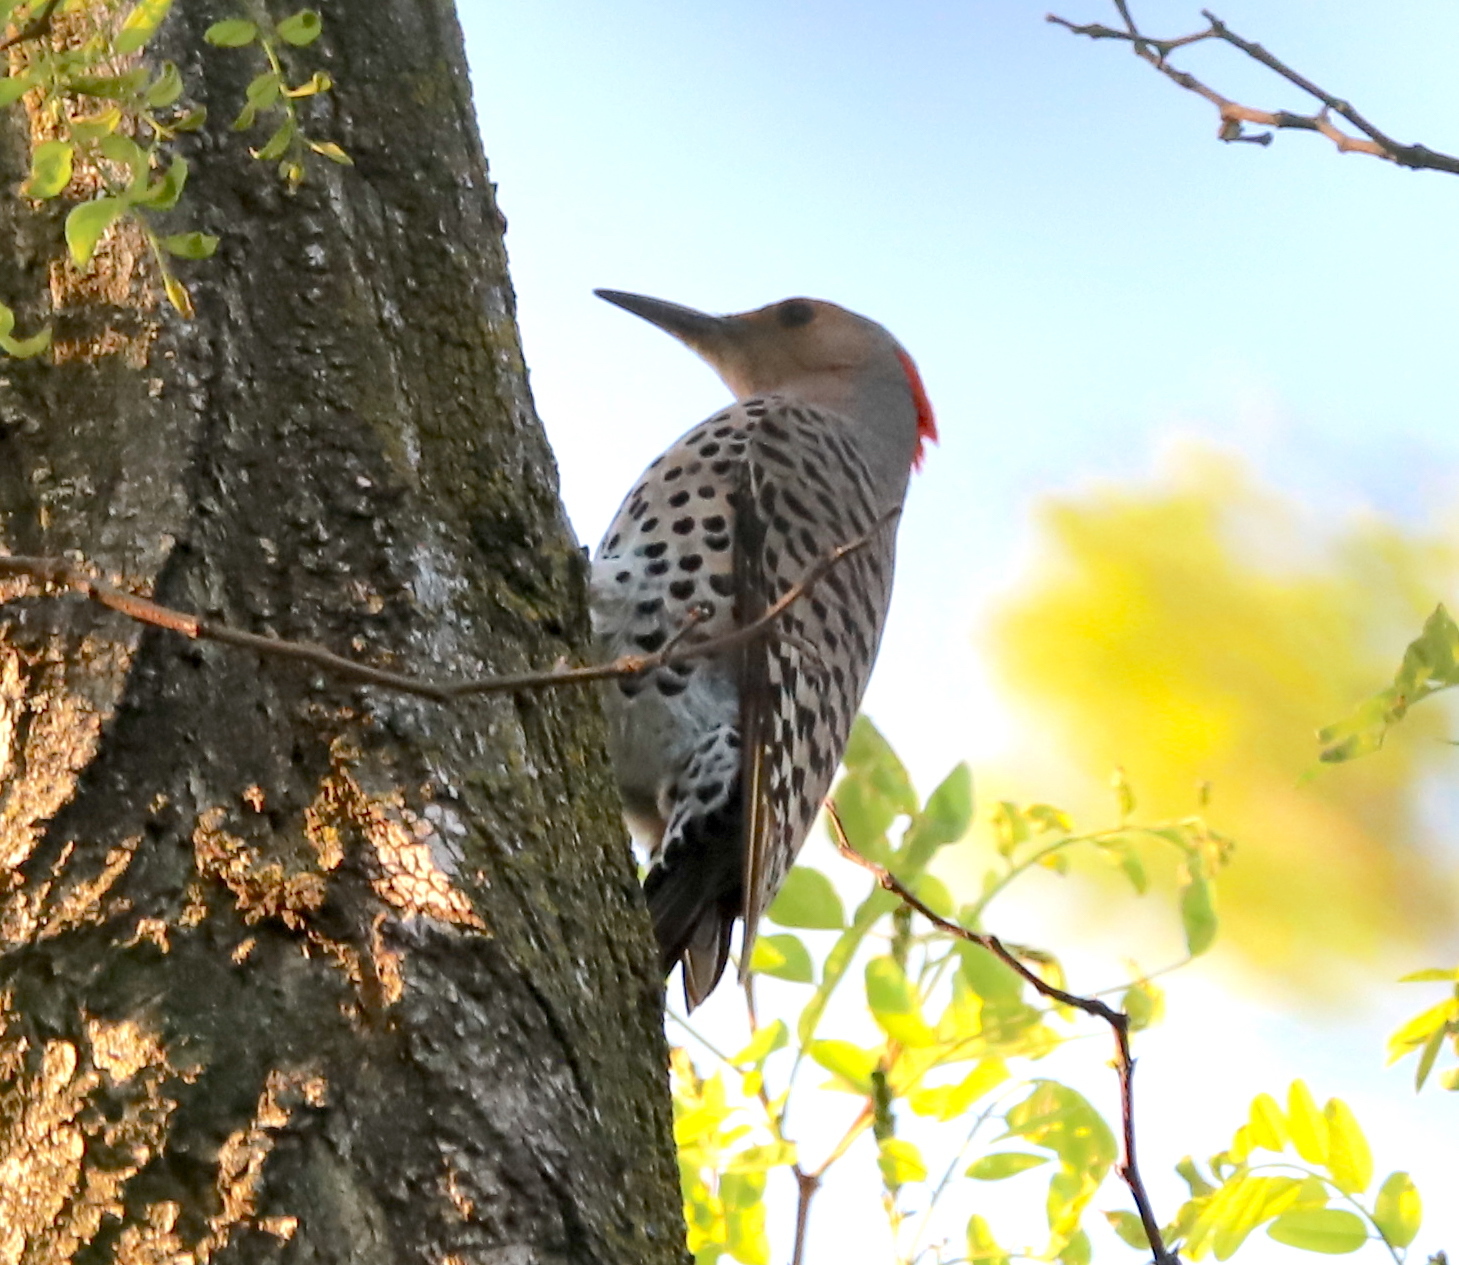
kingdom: Animalia
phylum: Chordata
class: Aves
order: Piciformes
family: Picidae
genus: Colaptes
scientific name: Colaptes auratus
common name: Northern flicker
